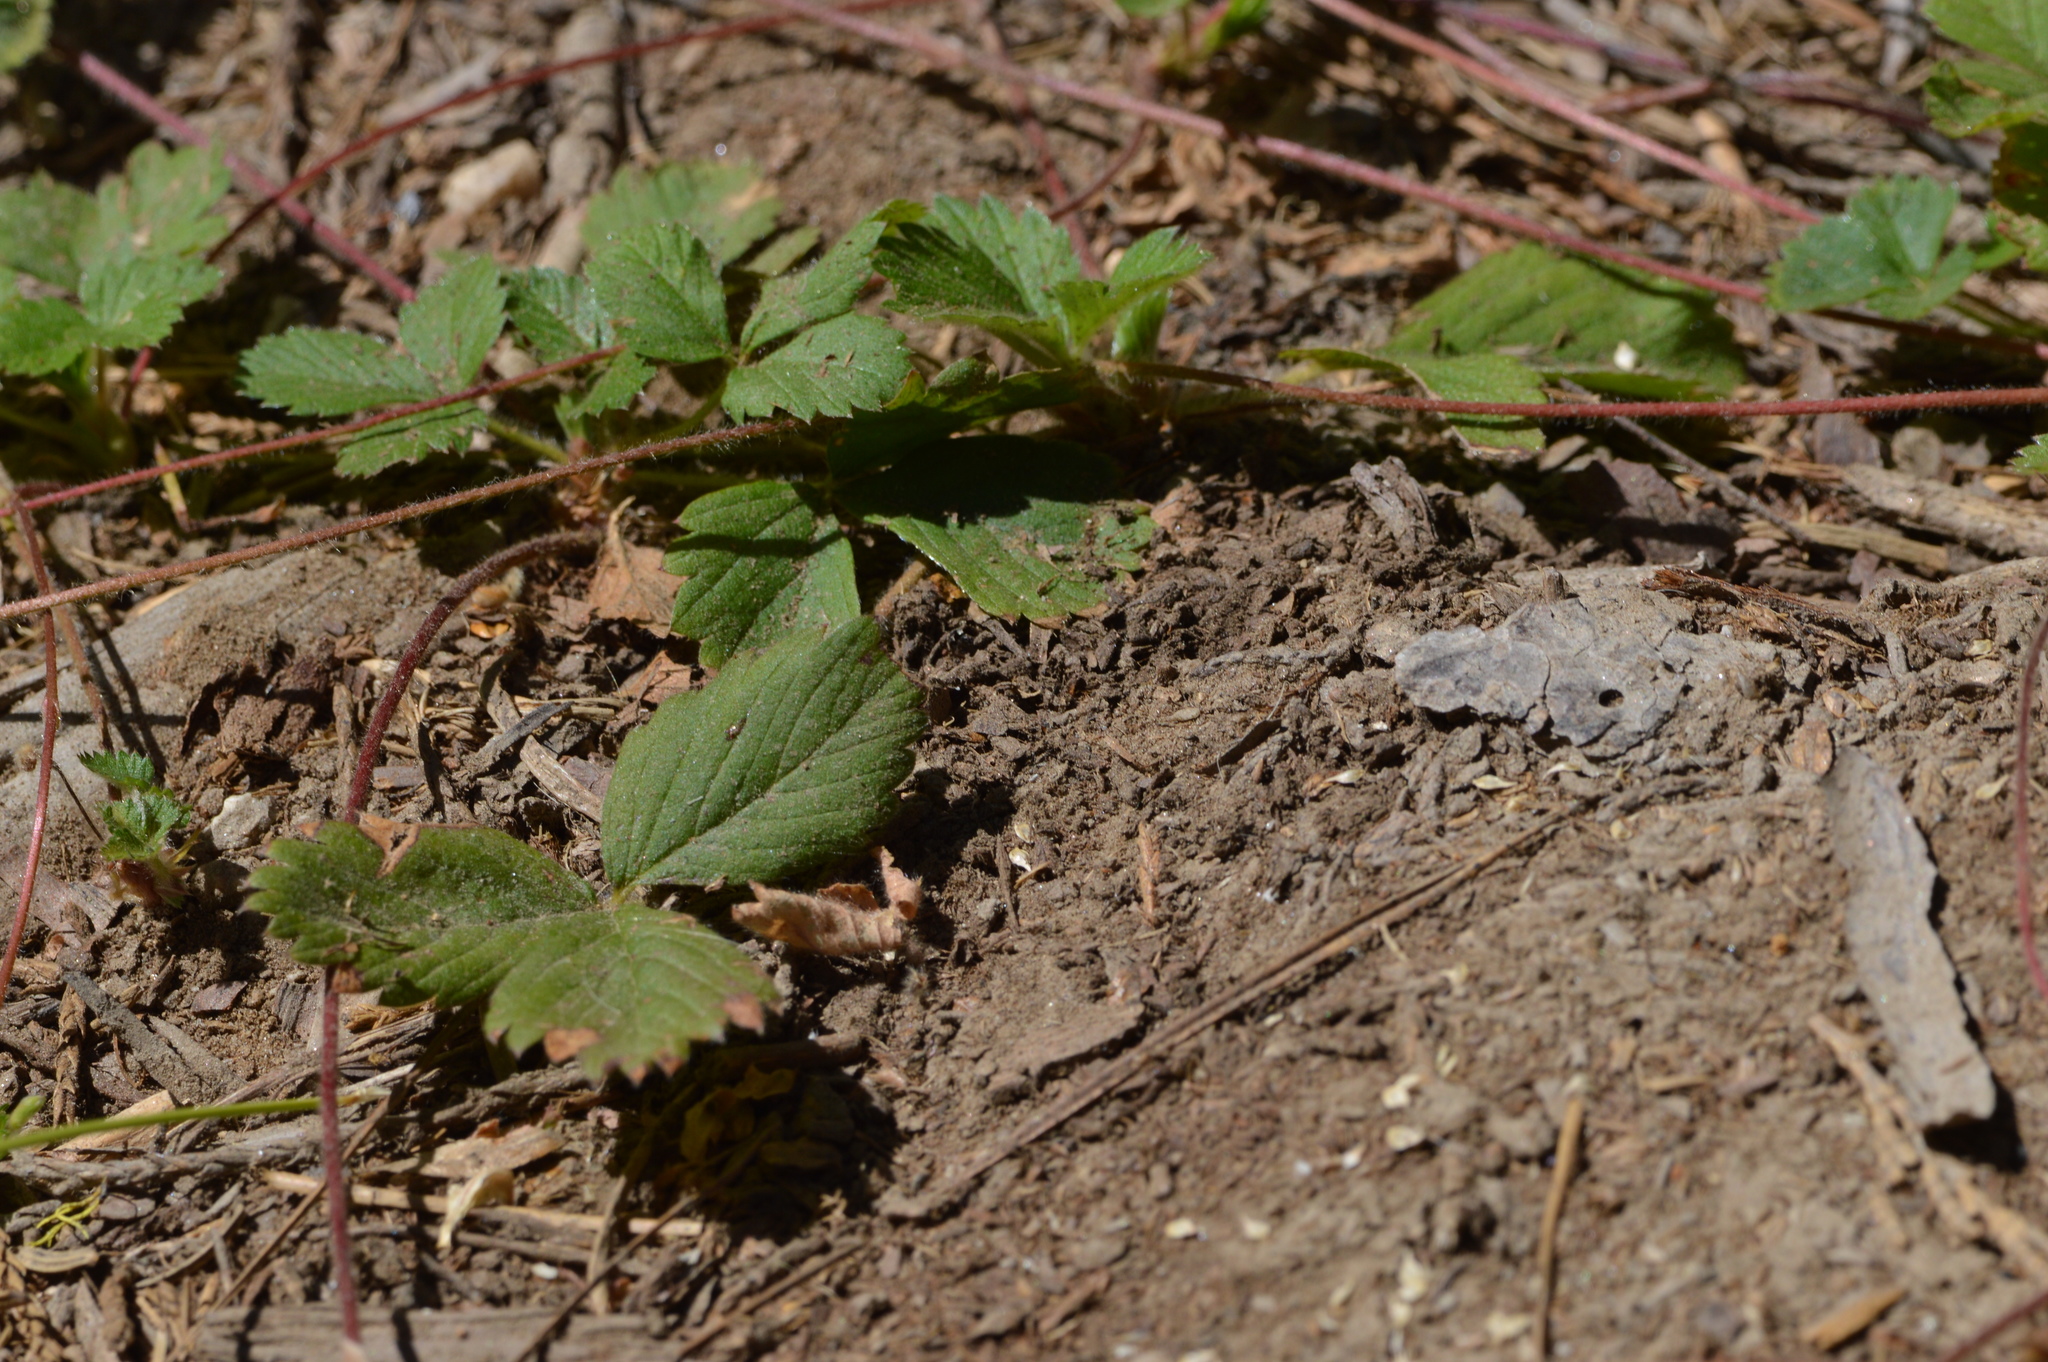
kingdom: Plantae
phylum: Tracheophyta
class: Magnoliopsida
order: Rosales
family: Rosaceae
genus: Fragaria
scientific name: Fragaria vesca
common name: Wild strawberry
